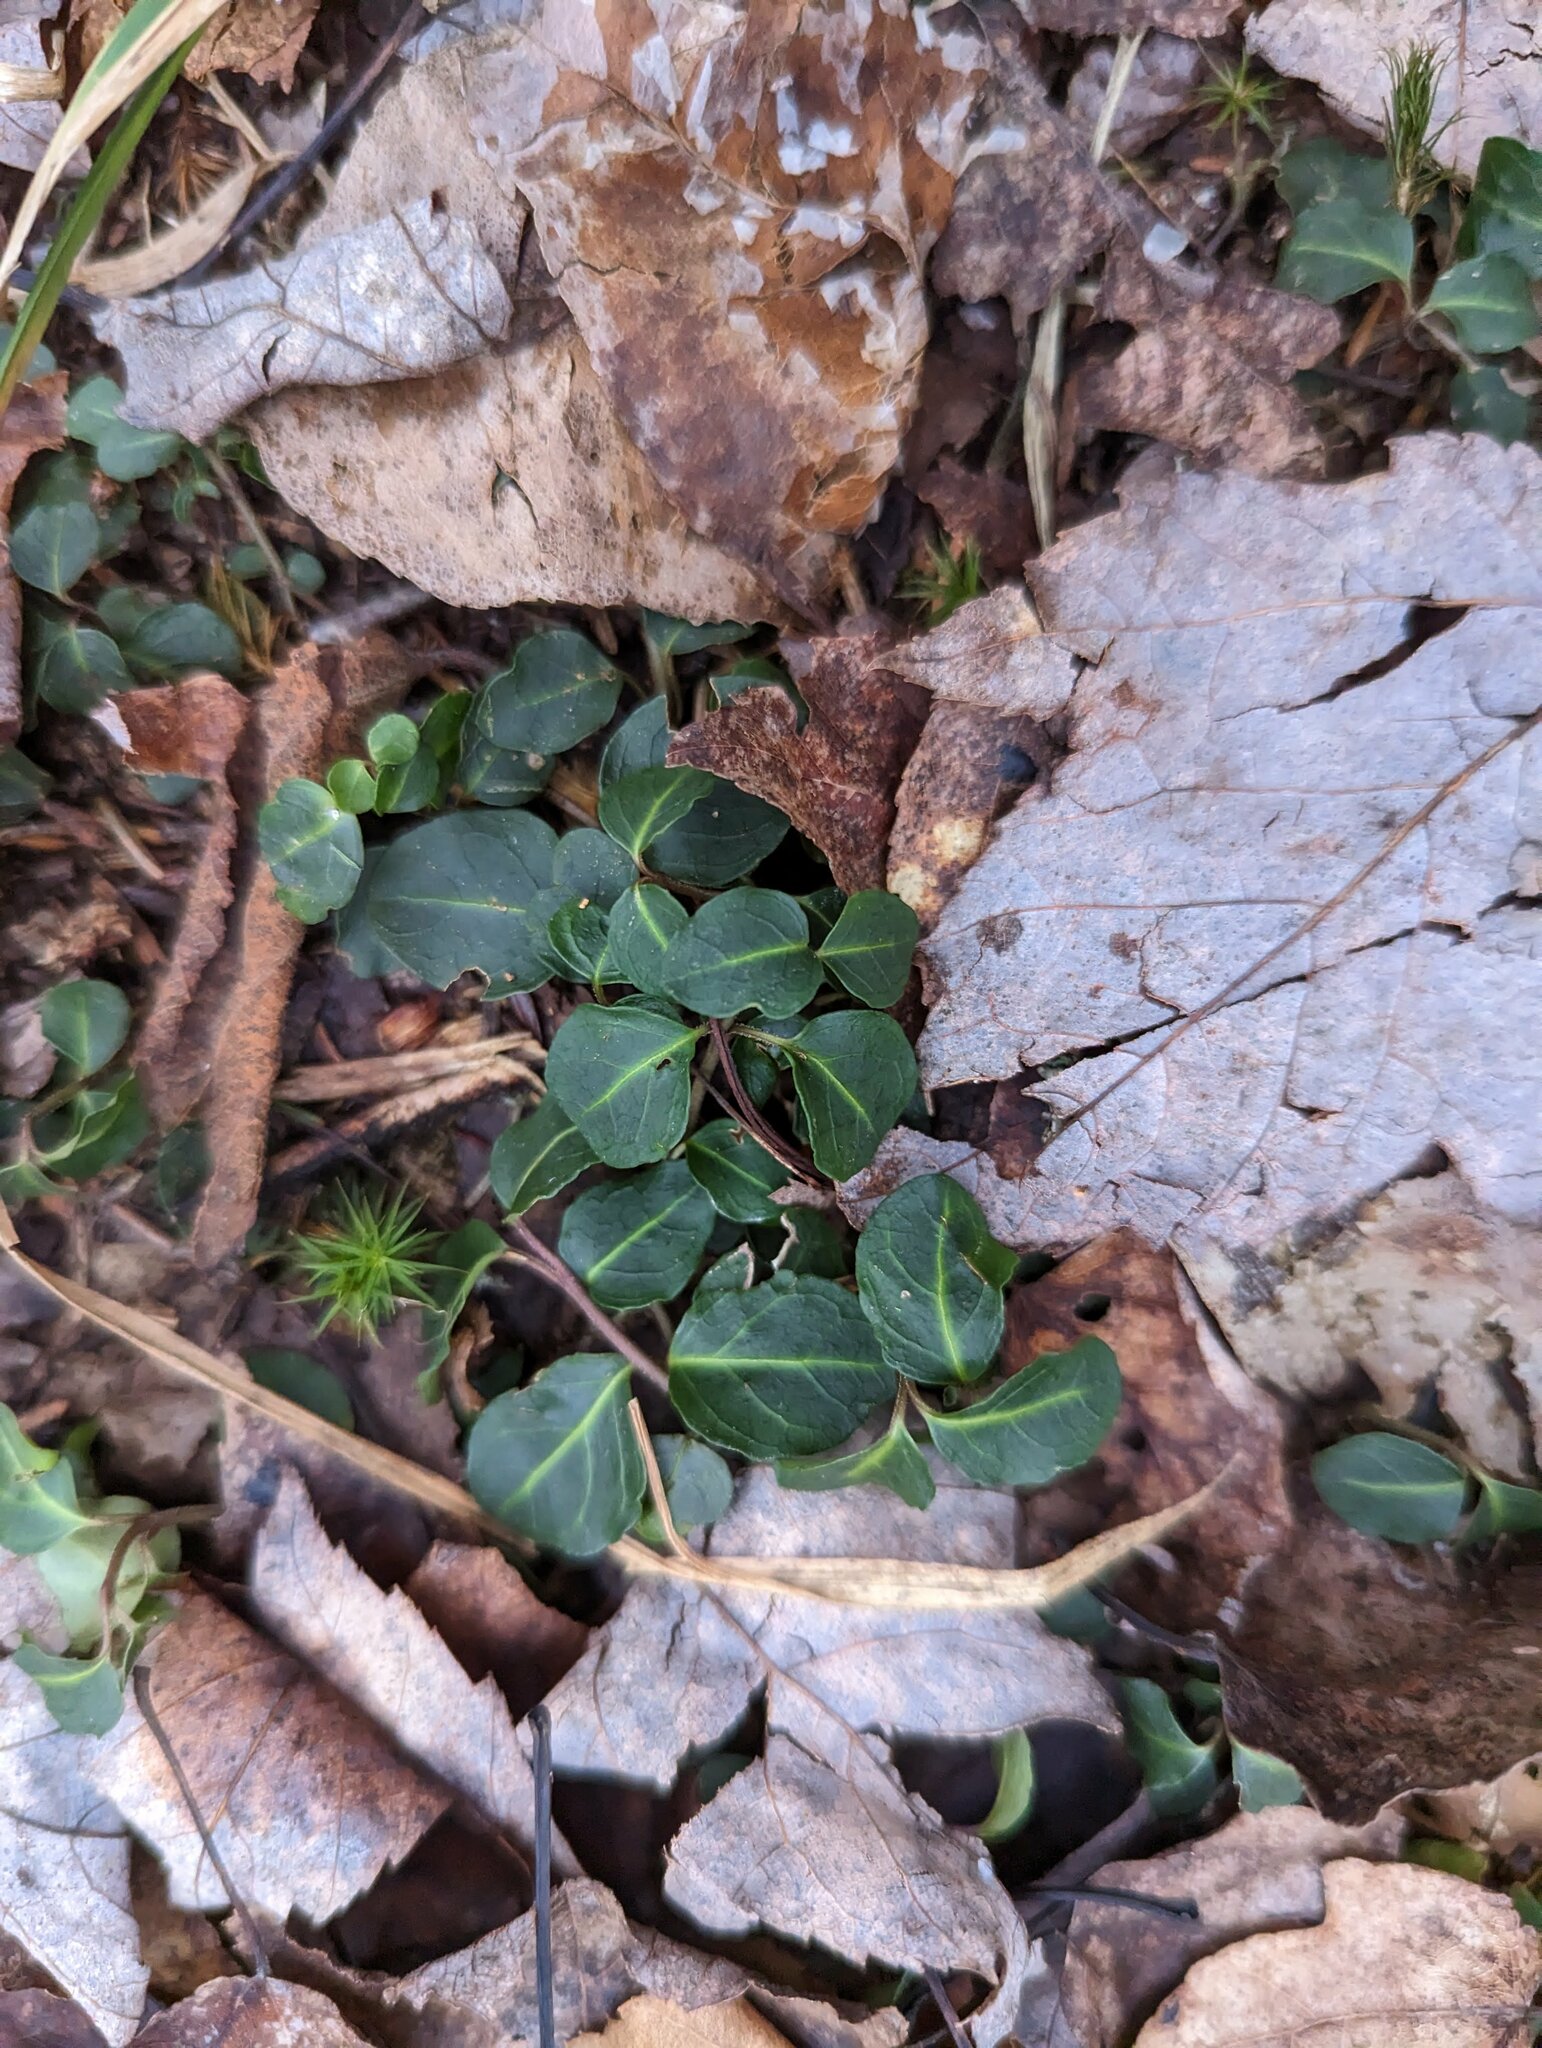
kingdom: Plantae
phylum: Tracheophyta
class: Magnoliopsida
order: Gentianales
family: Rubiaceae
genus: Mitchella
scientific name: Mitchella repens
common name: Partridge-berry
